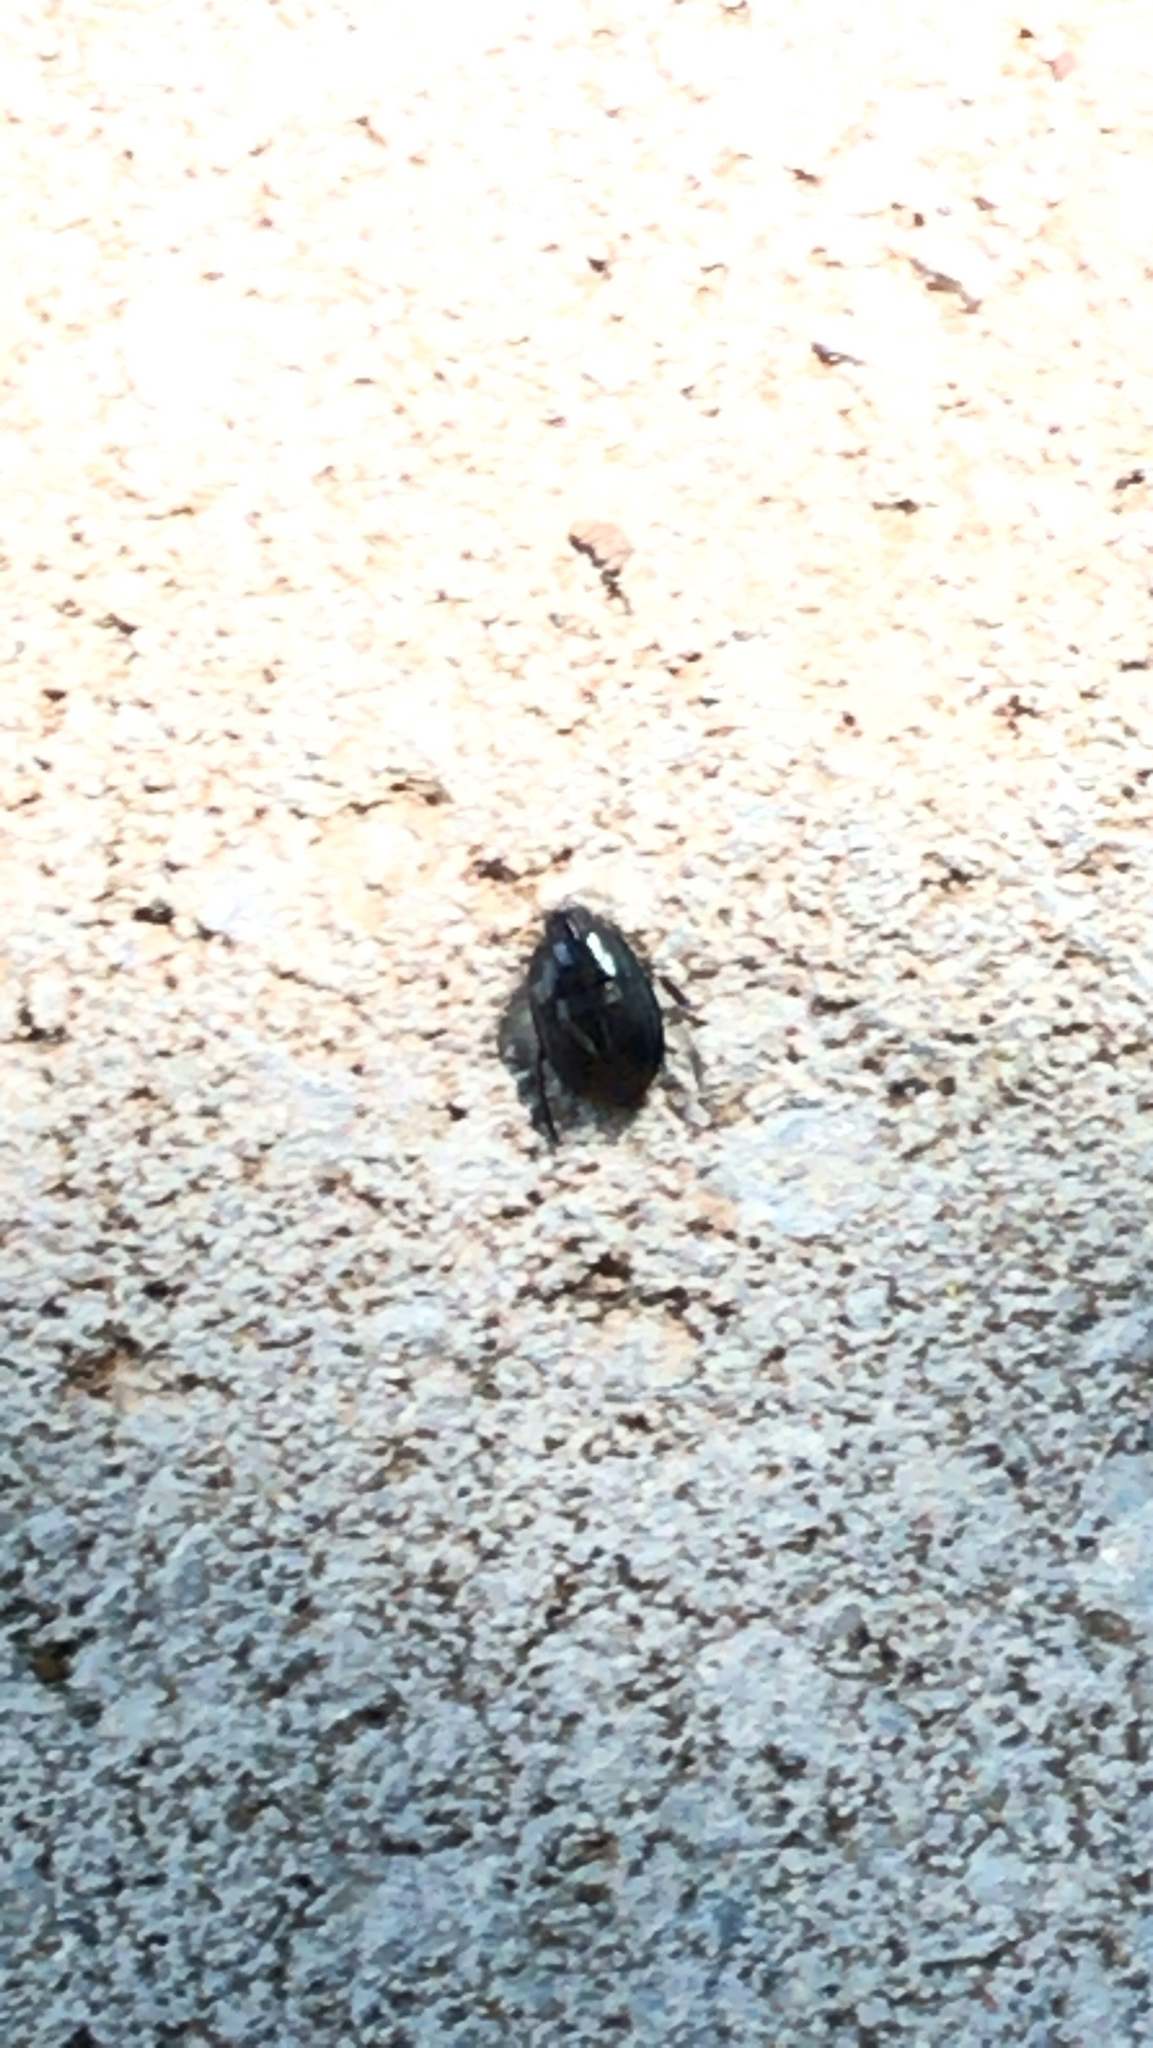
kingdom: Animalia
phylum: Arthropoda
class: Insecta
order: Hemiptera
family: Cydnidae
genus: Pangaeus
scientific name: Pangaeus bilineatus
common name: Burrower bug
